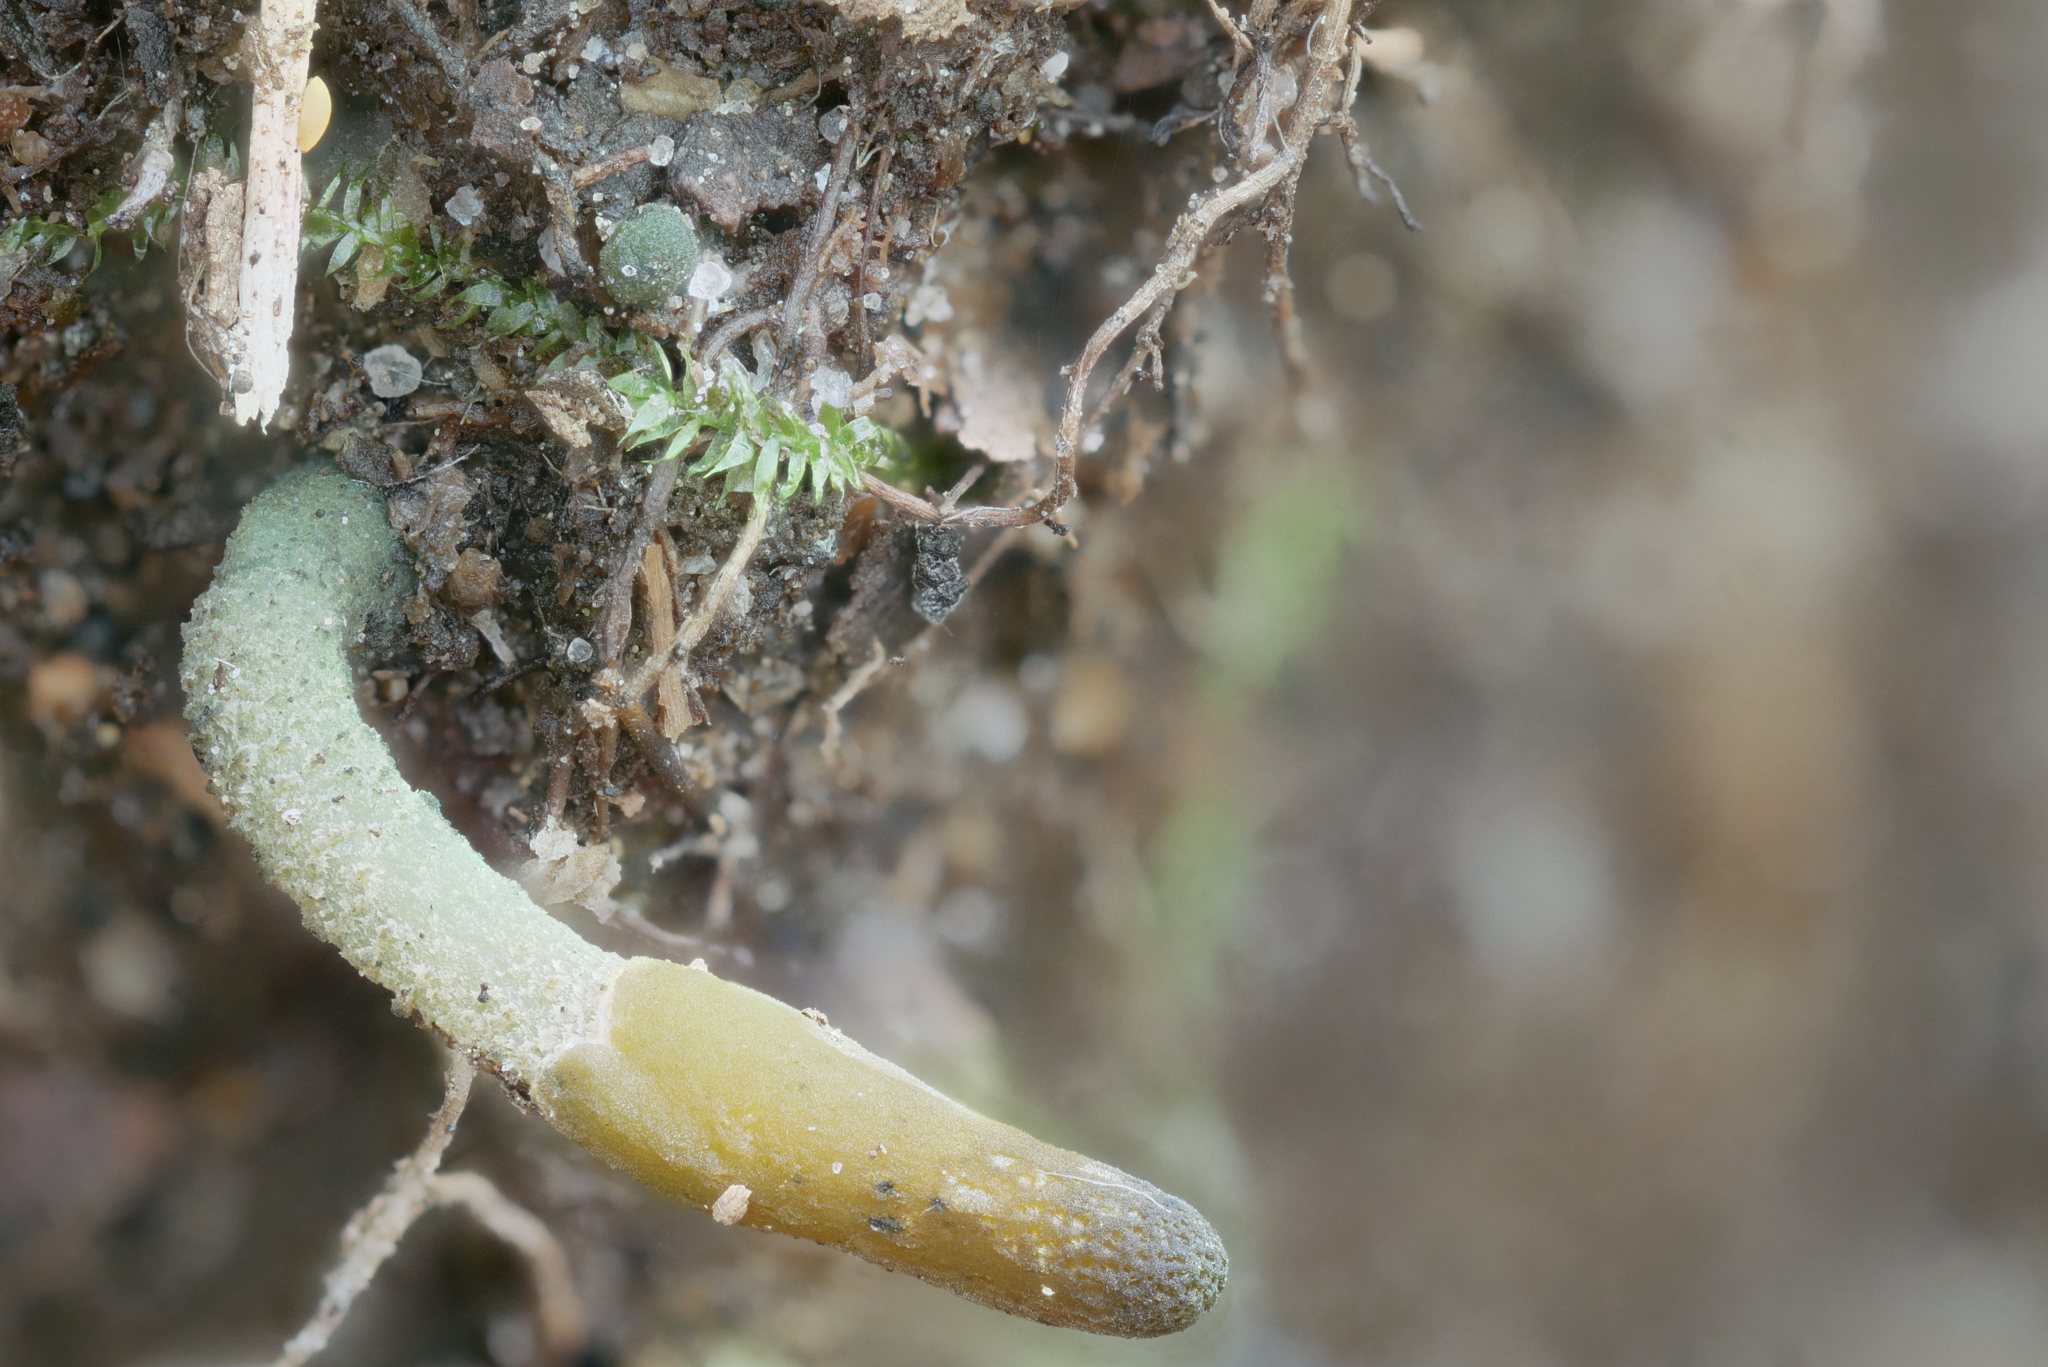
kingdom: Fungi
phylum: Ascomycota
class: Leotiomycetes
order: Leotiales
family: Leotiaceae
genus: Microglossum
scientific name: Microglossum viride
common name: Green earthtongue
